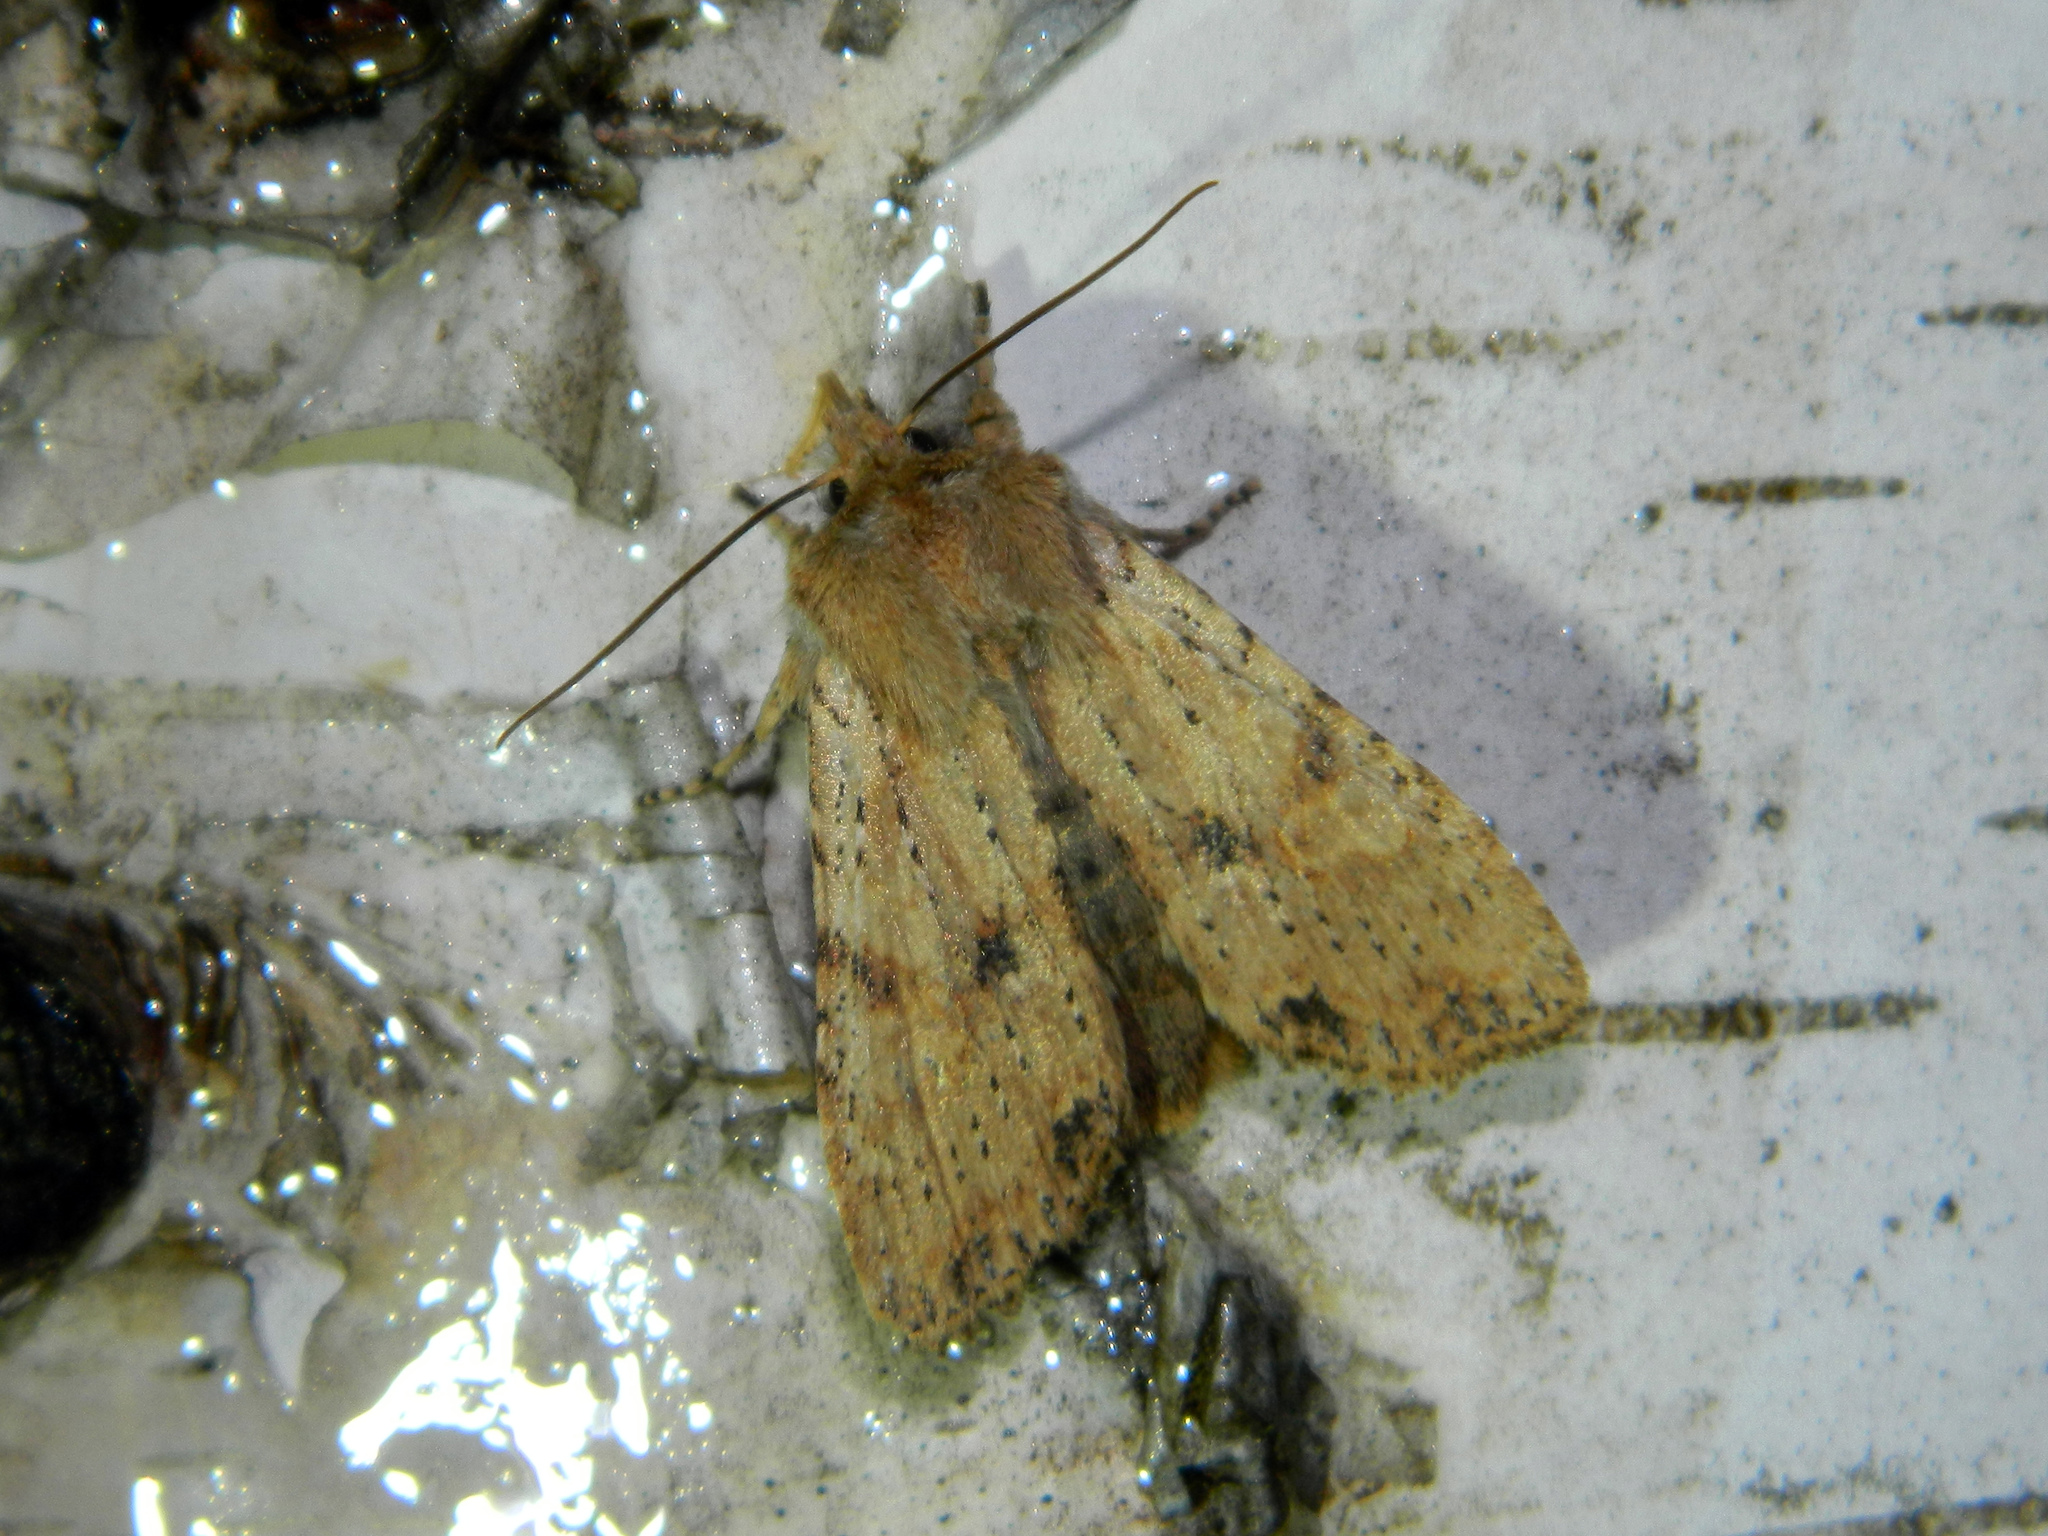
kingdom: Animalia
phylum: Arthropoda
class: Insecta
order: Lepidoptera
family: Noctuidae
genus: Lithophane
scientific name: Lithophane innominata
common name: Nameless pinion moth
